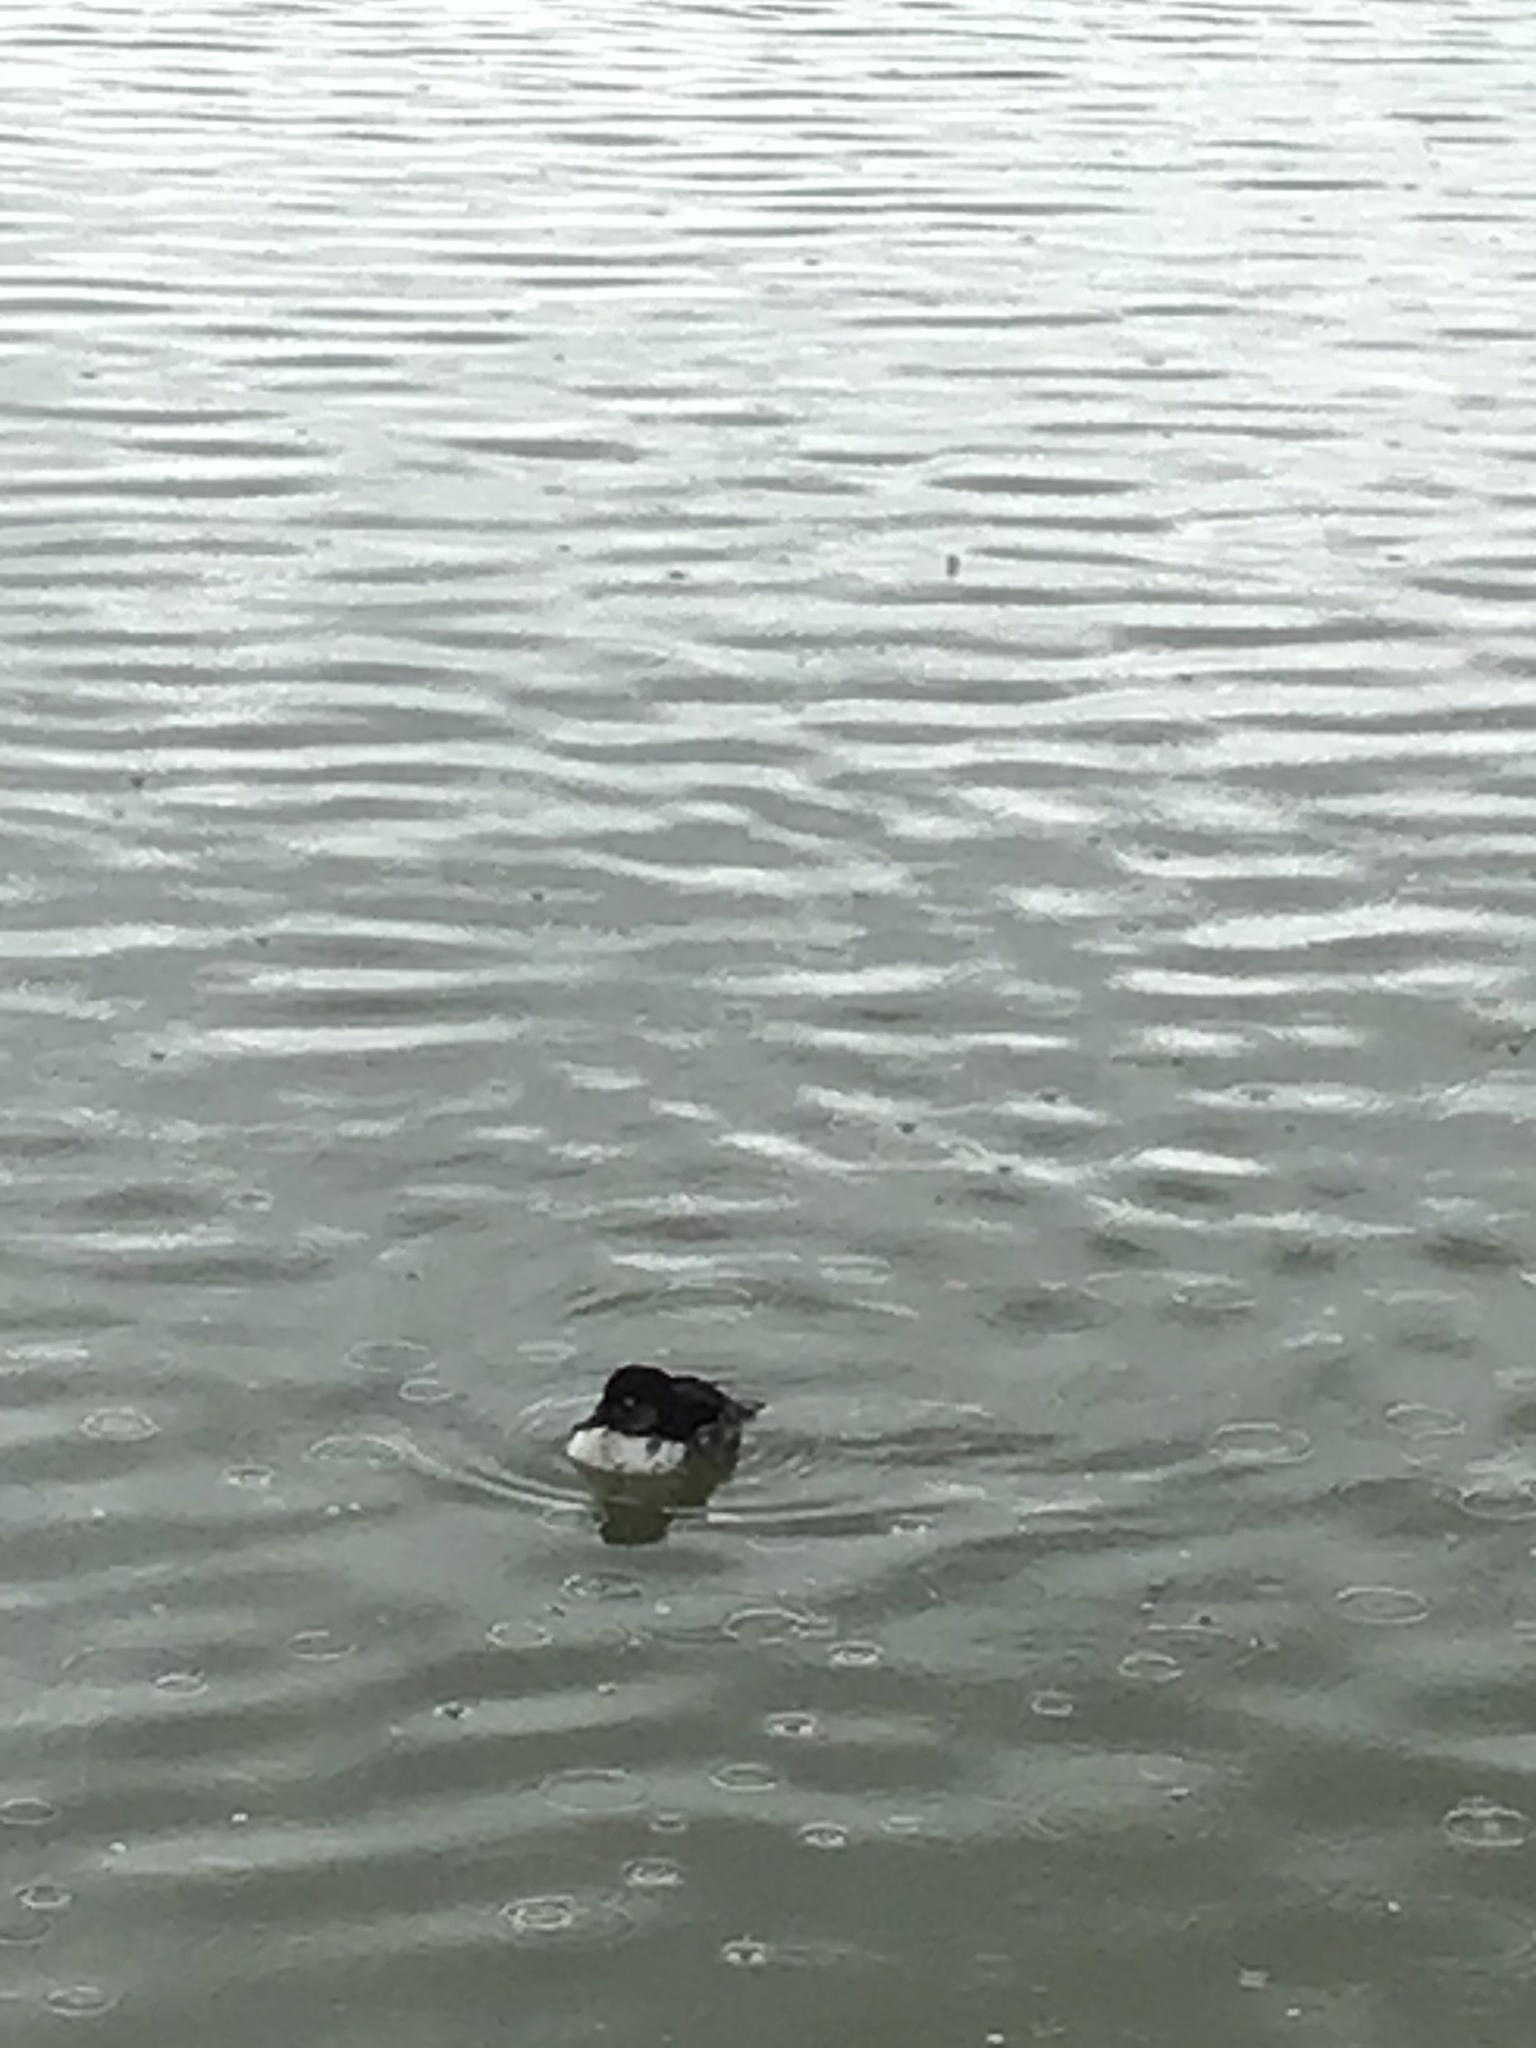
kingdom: Animalia
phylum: Chordata
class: Aves
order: Anseriformes
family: Anatidae
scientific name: Anatidae
